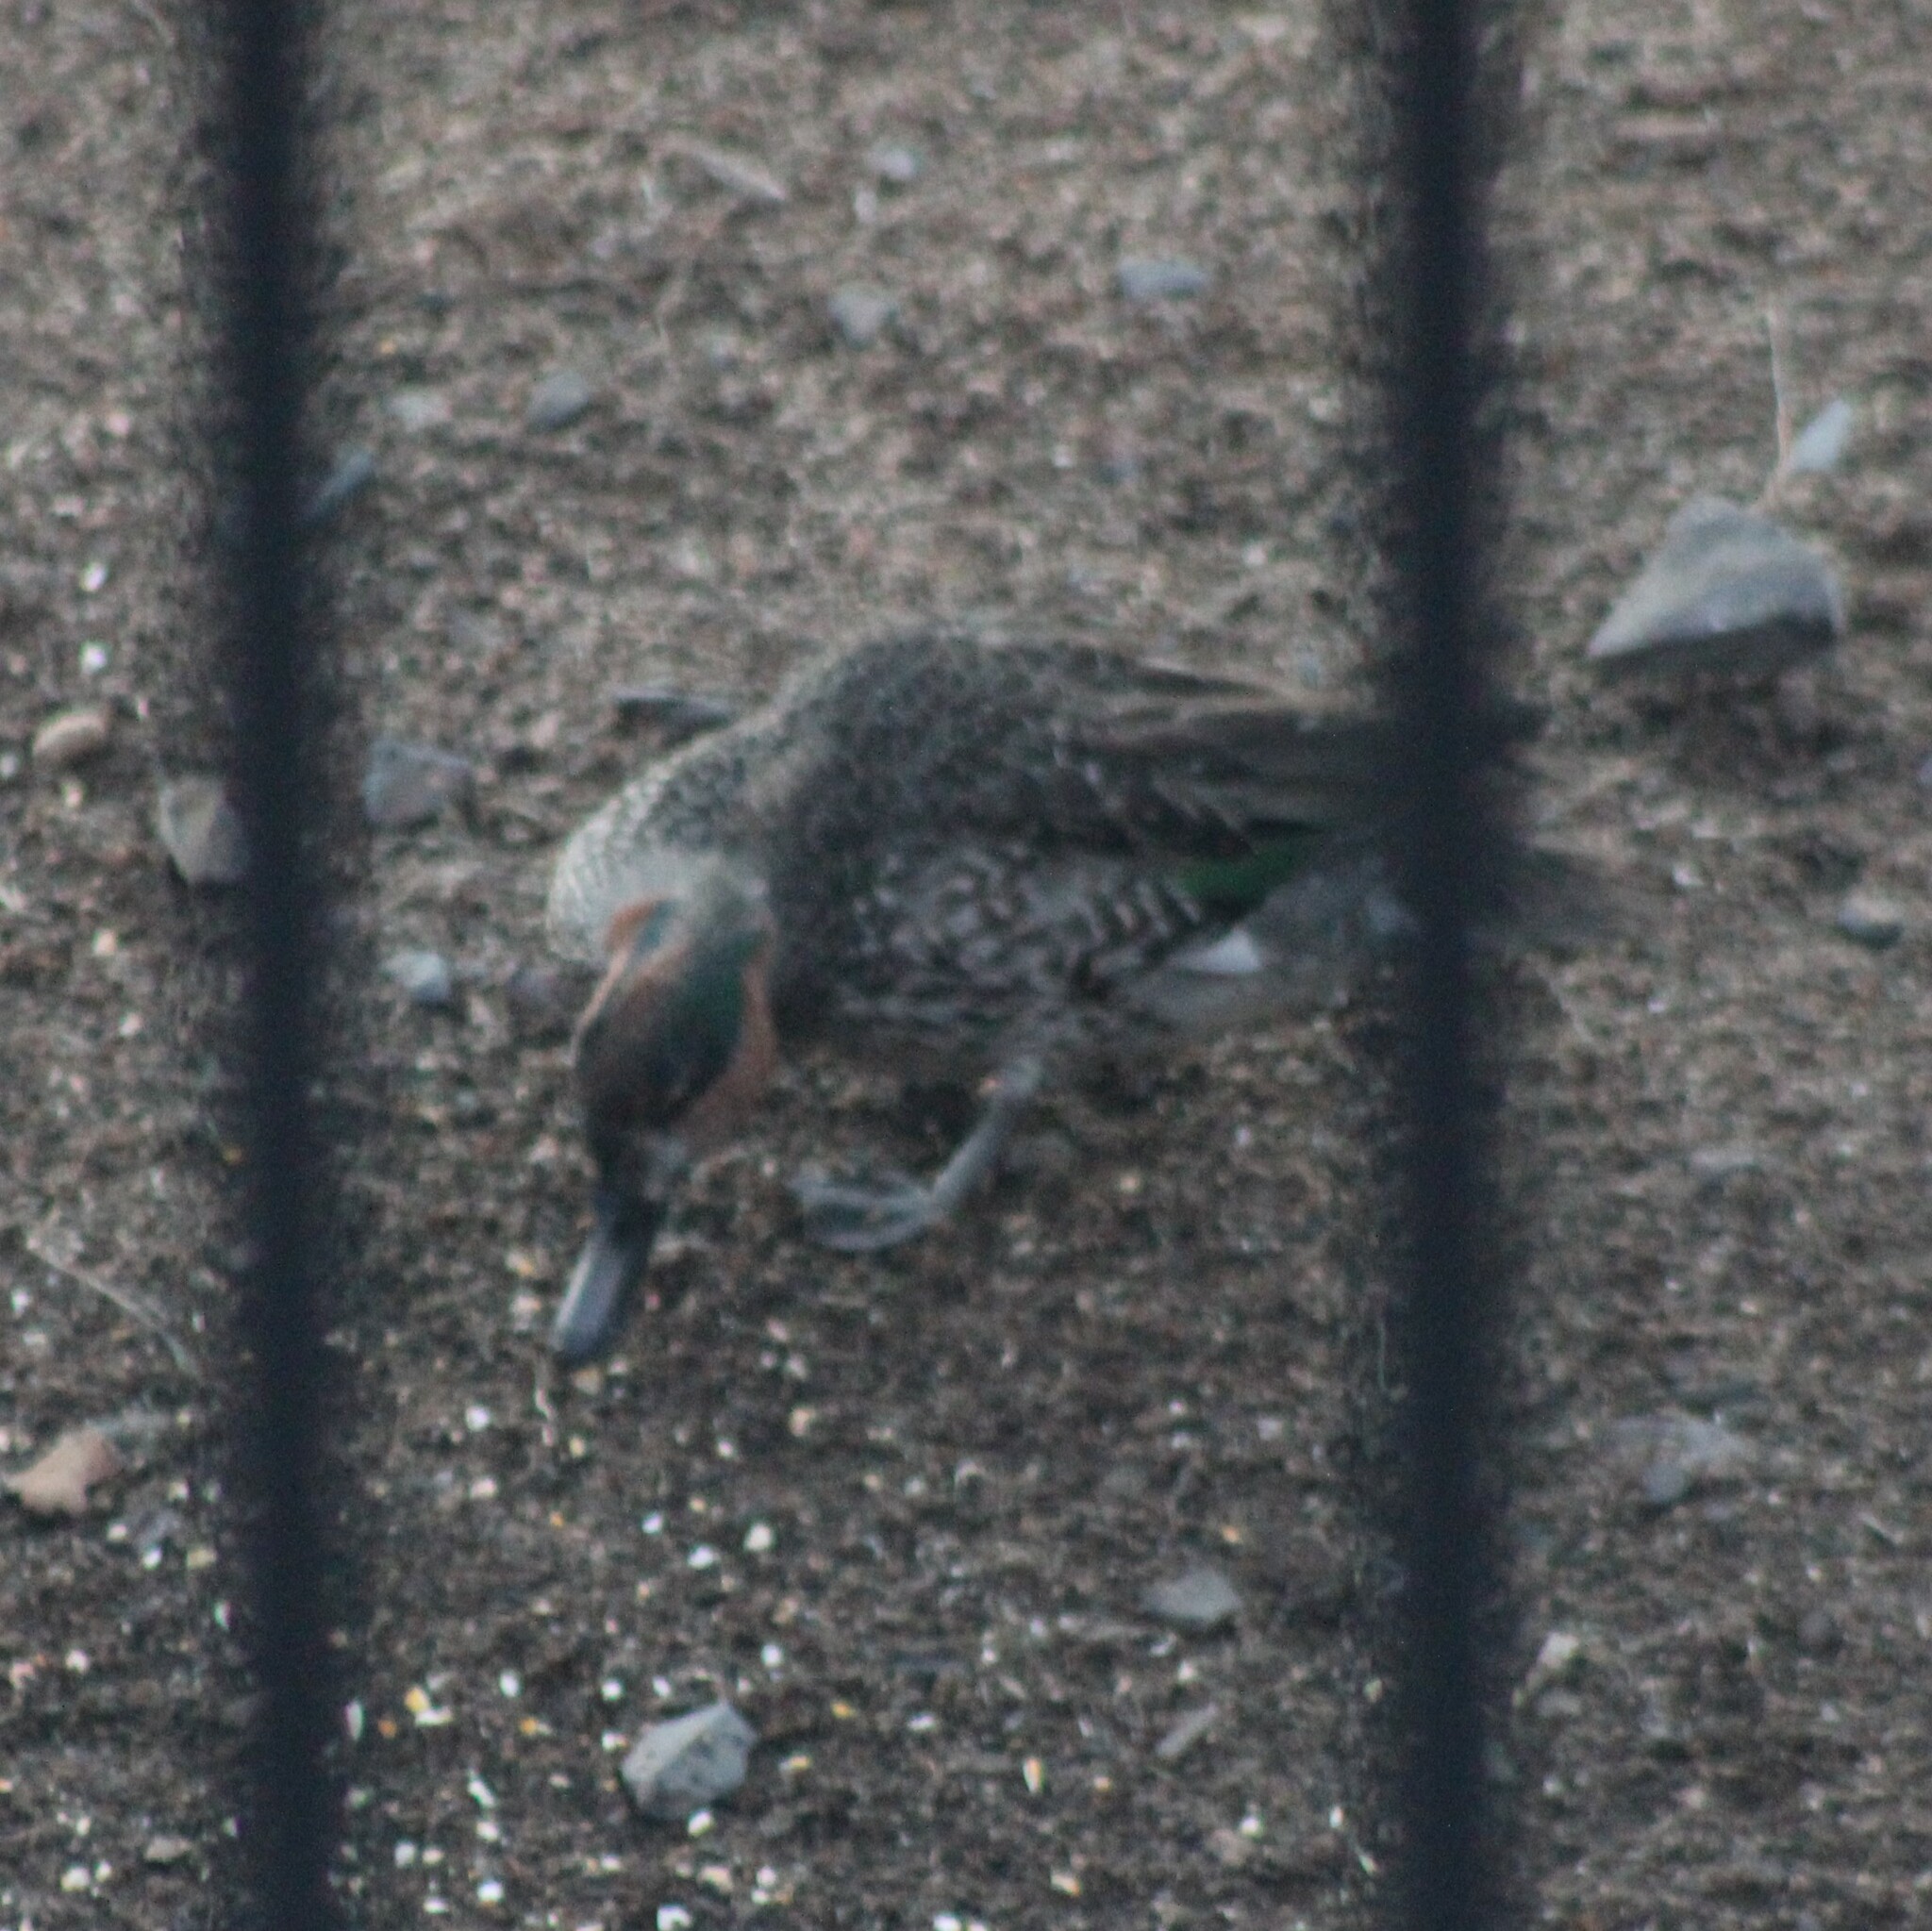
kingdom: Animalia
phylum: Chordata
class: Aves
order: Anseriformes
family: Anatidae
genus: Anas
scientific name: Anas crecca
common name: Eurasian teal
